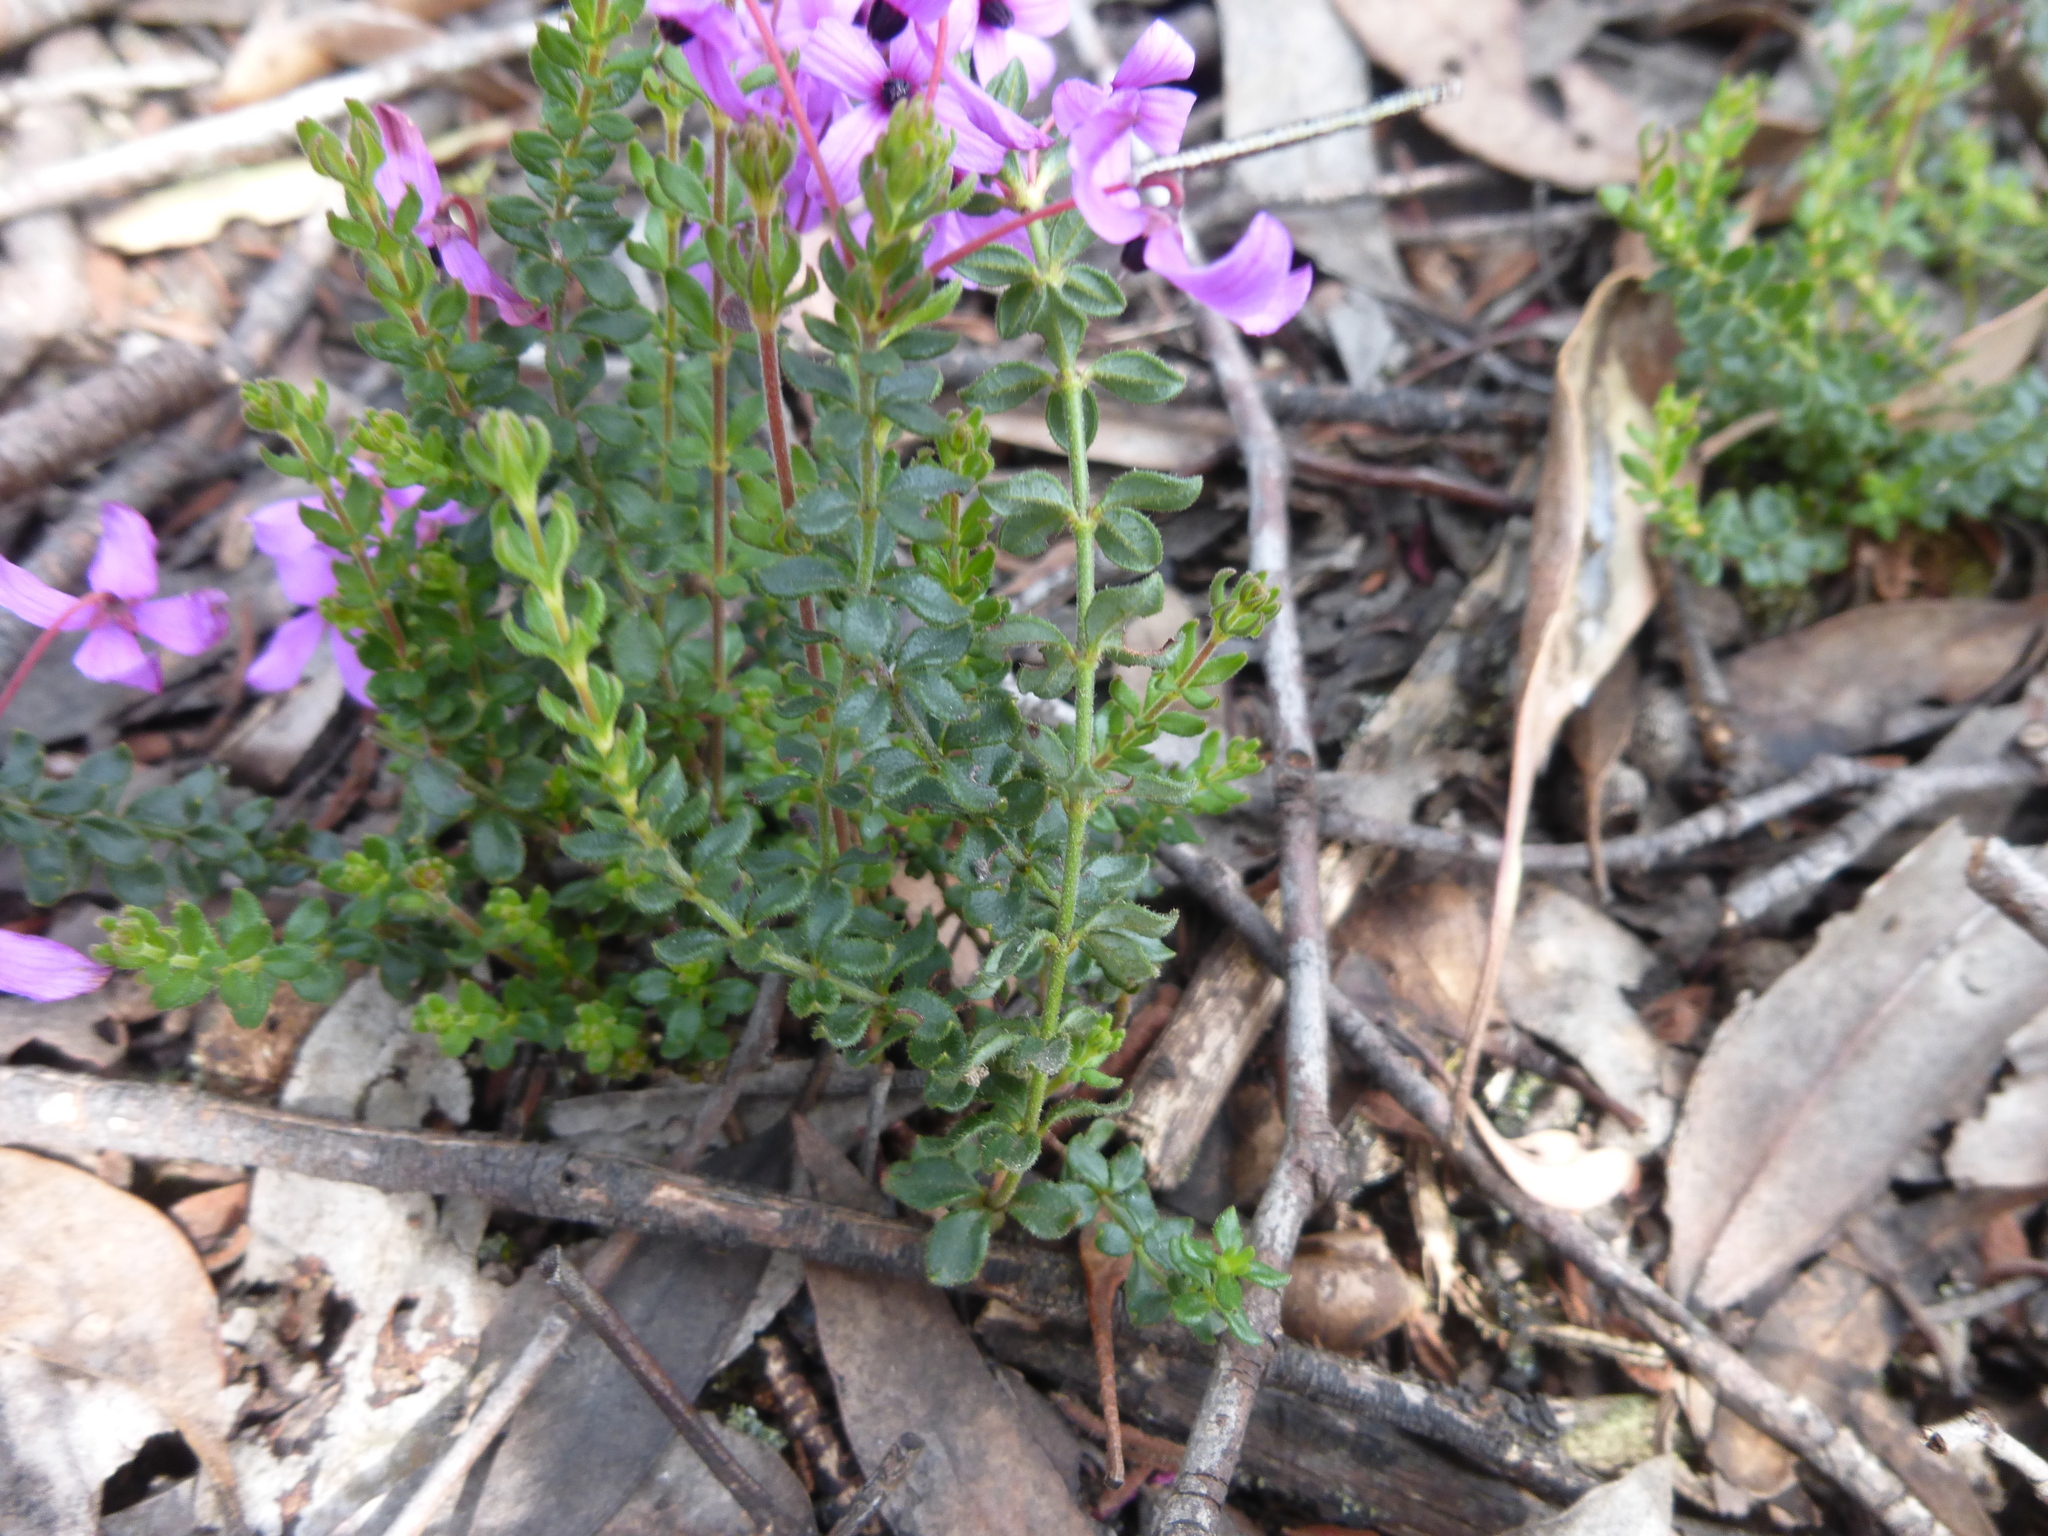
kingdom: Plantae
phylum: Tracheophyta
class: Magnoliopsida
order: Oxalidales
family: Elaeocarpaceae
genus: Tetratheca
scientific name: Tetratheca bauerifolia
